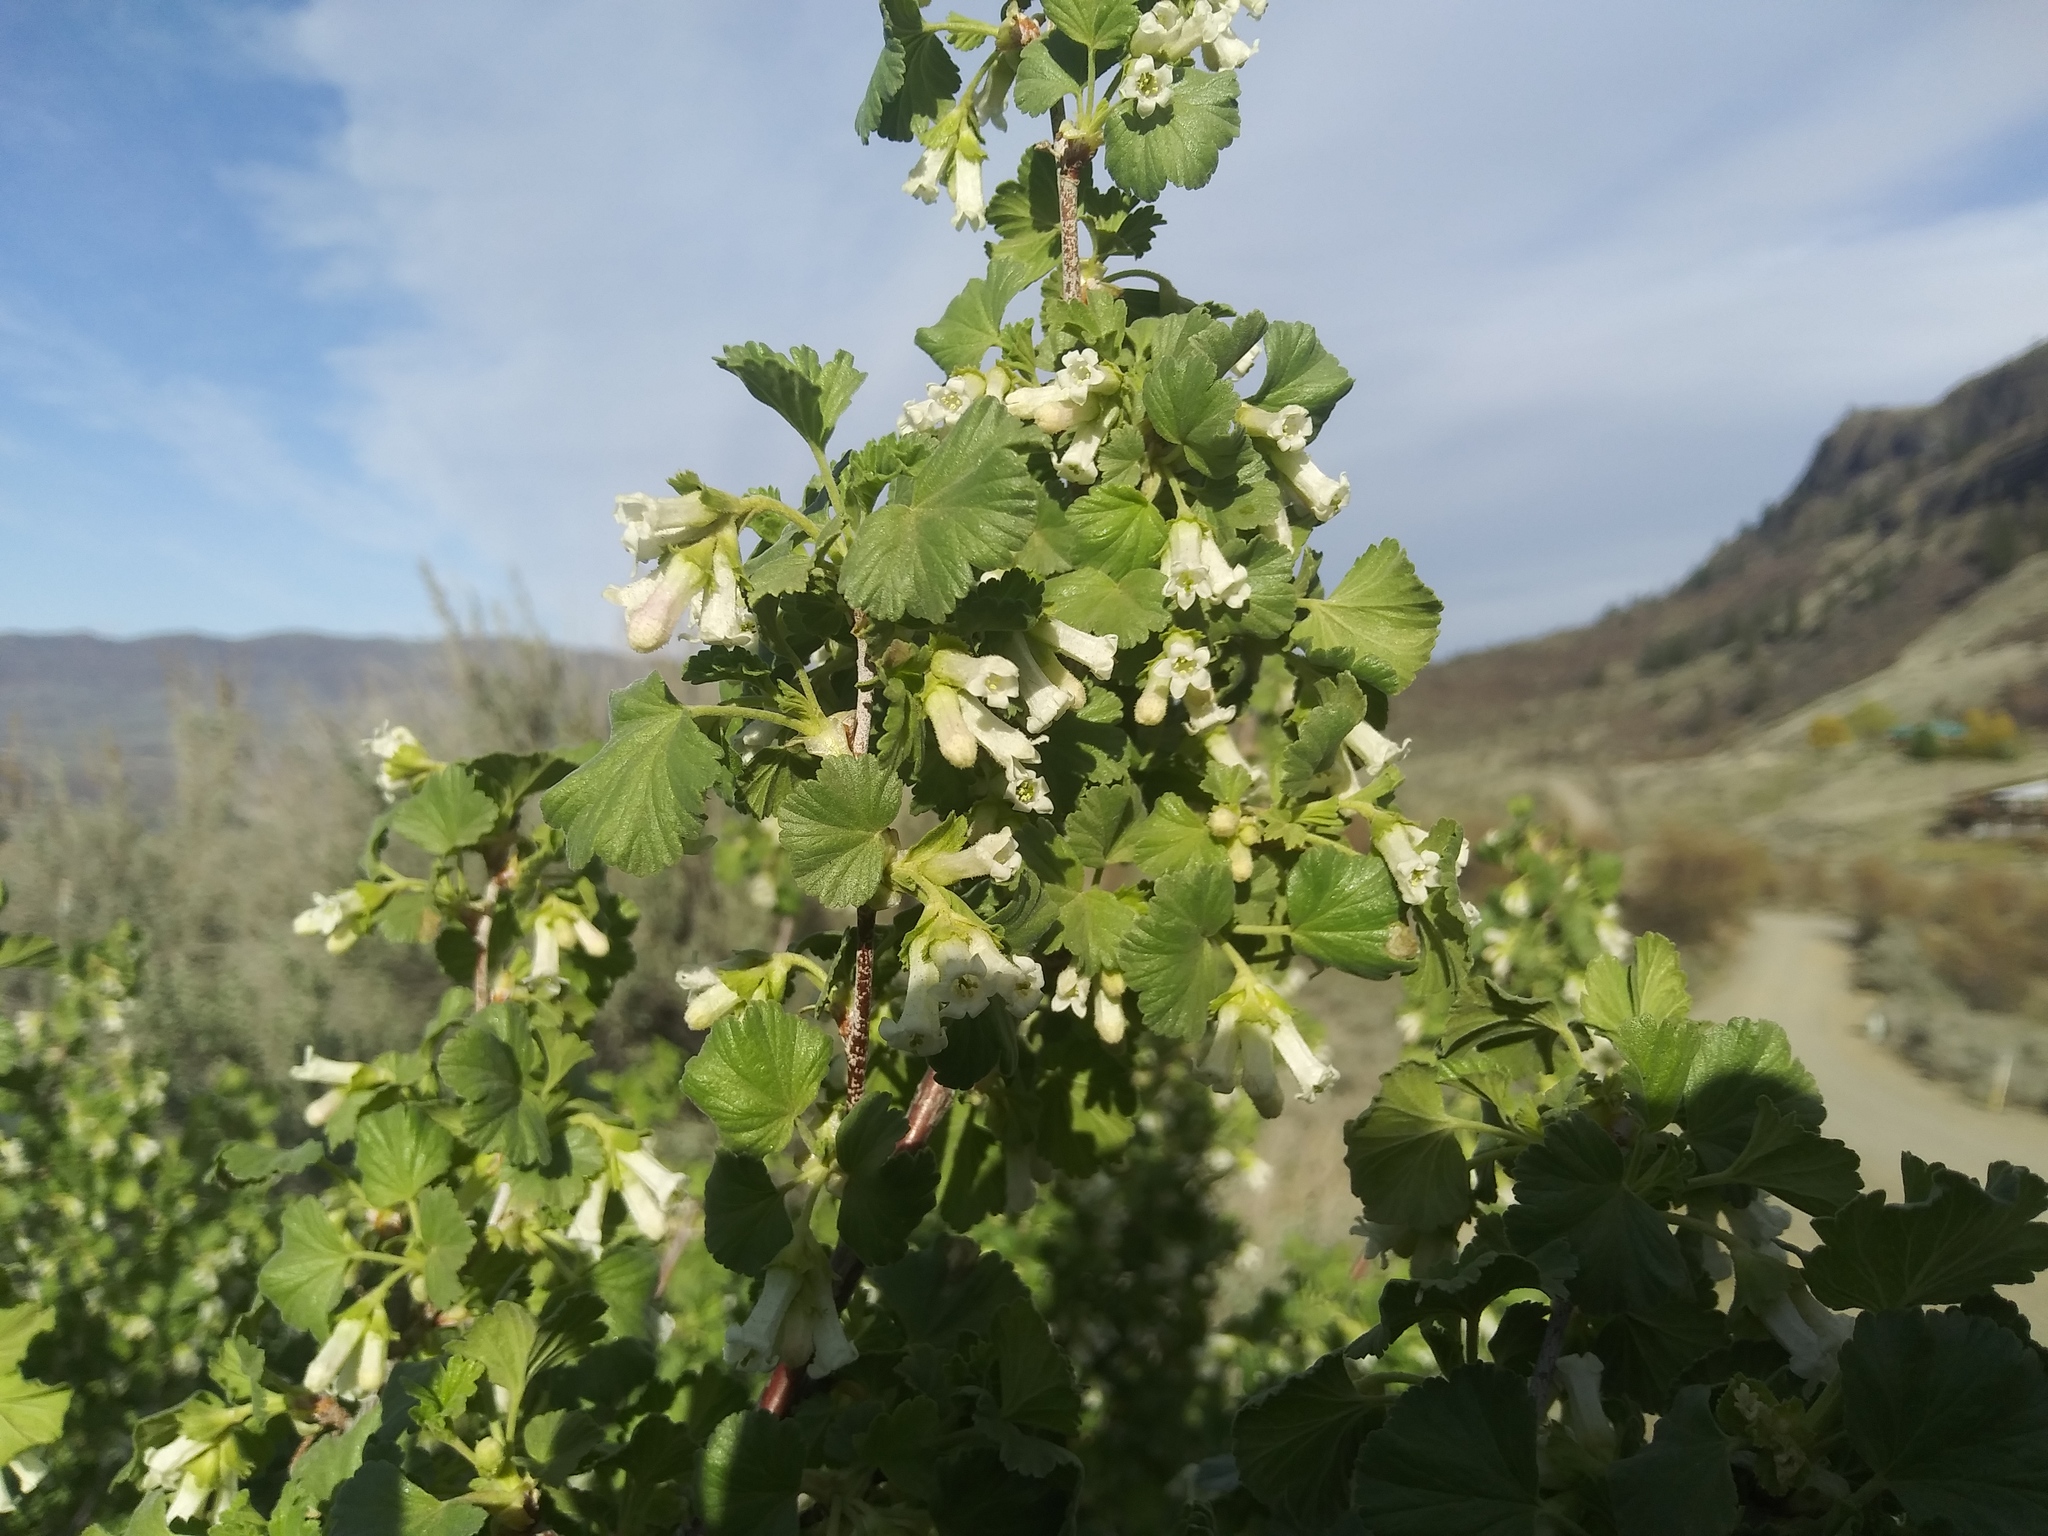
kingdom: Plantae
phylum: Tracheophyta
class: Magnoliopsida
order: Saxifragales
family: Grossulariaceae
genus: Ribes
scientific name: Ribes cereum
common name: Wax currant
